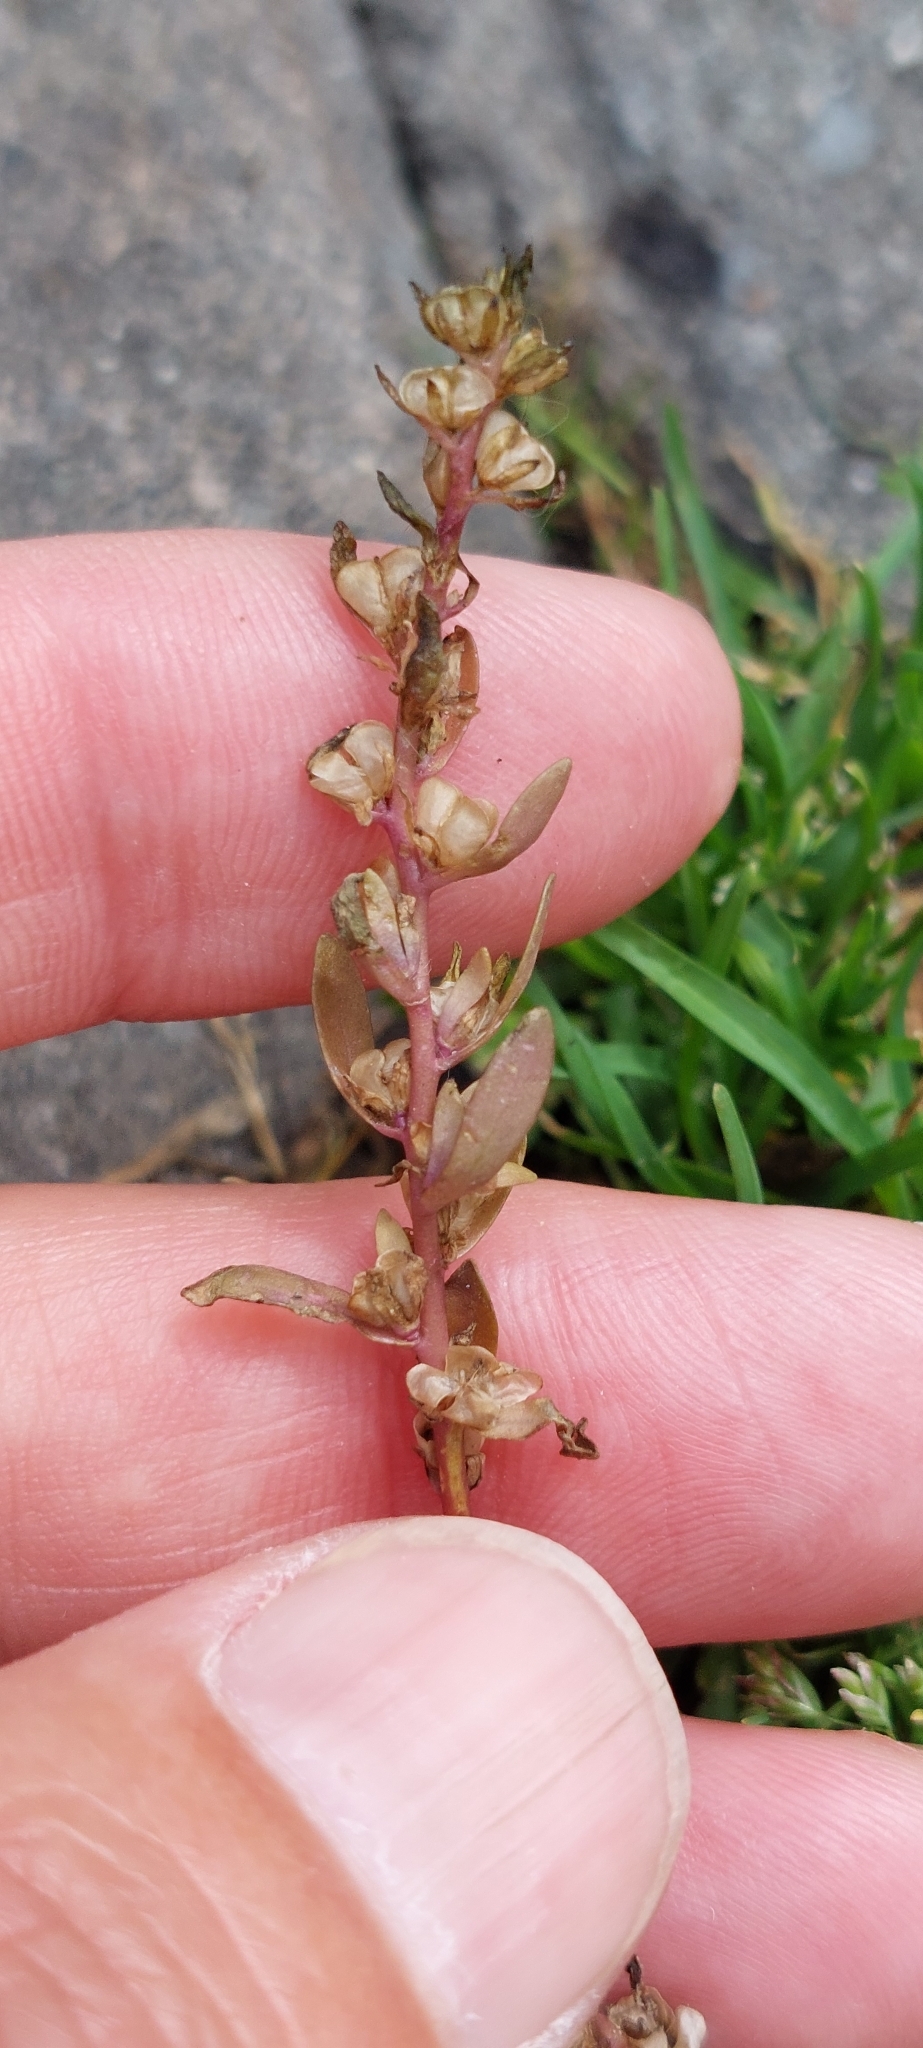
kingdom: Plantae
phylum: Tracheophyta
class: Magnoliopsida
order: Lamiales
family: Plantaginaceae
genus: Veronica
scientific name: Veronica peregrina
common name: Neckweed
